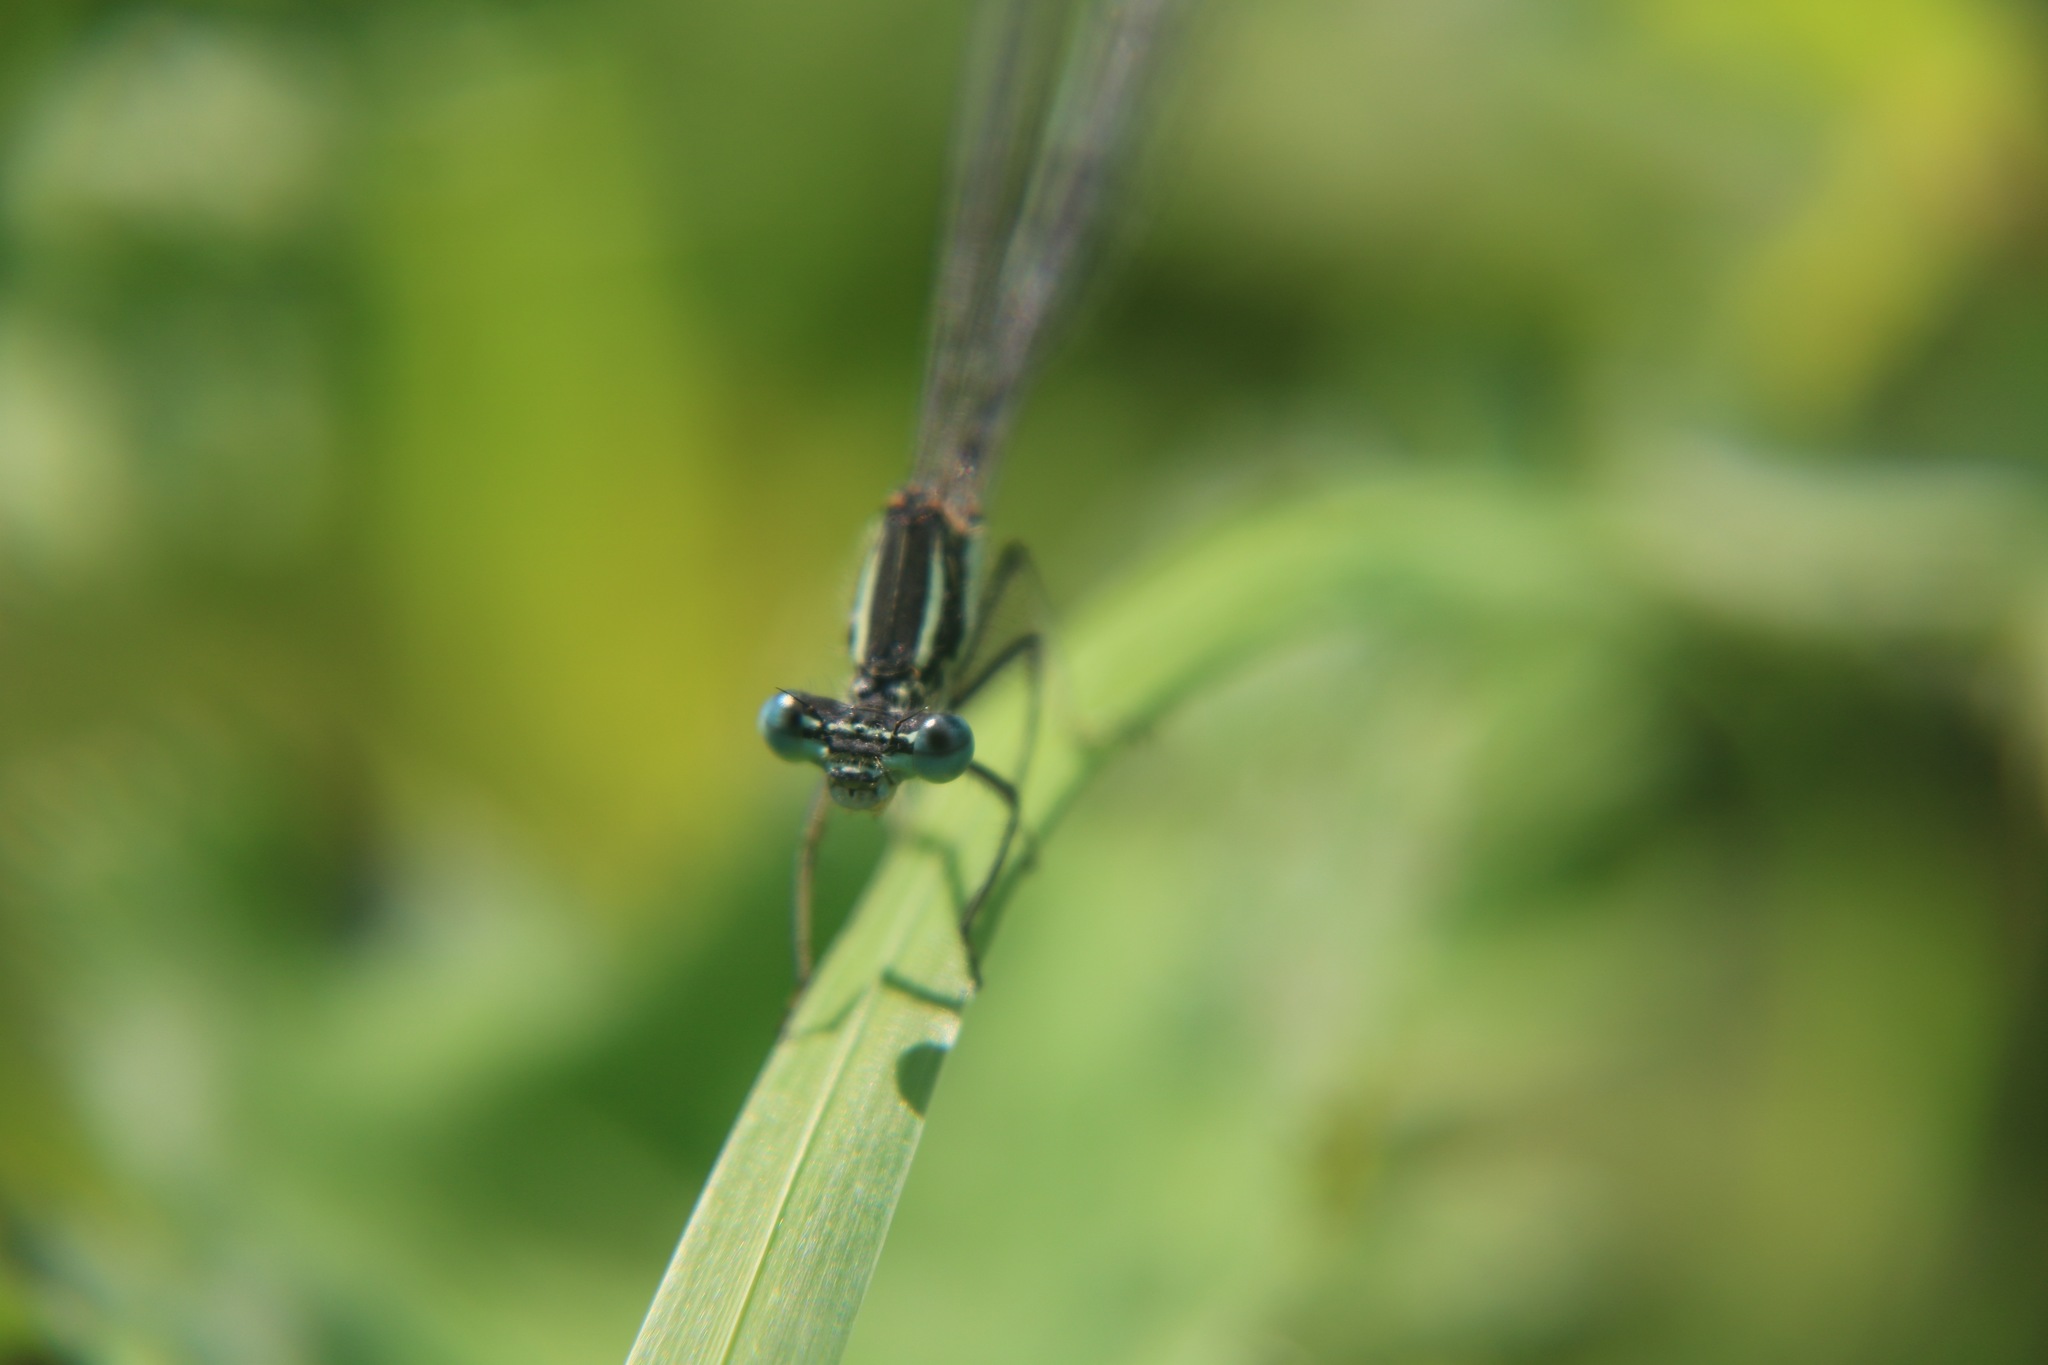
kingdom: Animalia
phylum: Arthropoda
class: Insecta
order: Odonata
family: Platycnemididae
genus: Platycnemis
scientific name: Platycnemis pennipes
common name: White-legged damselfly
